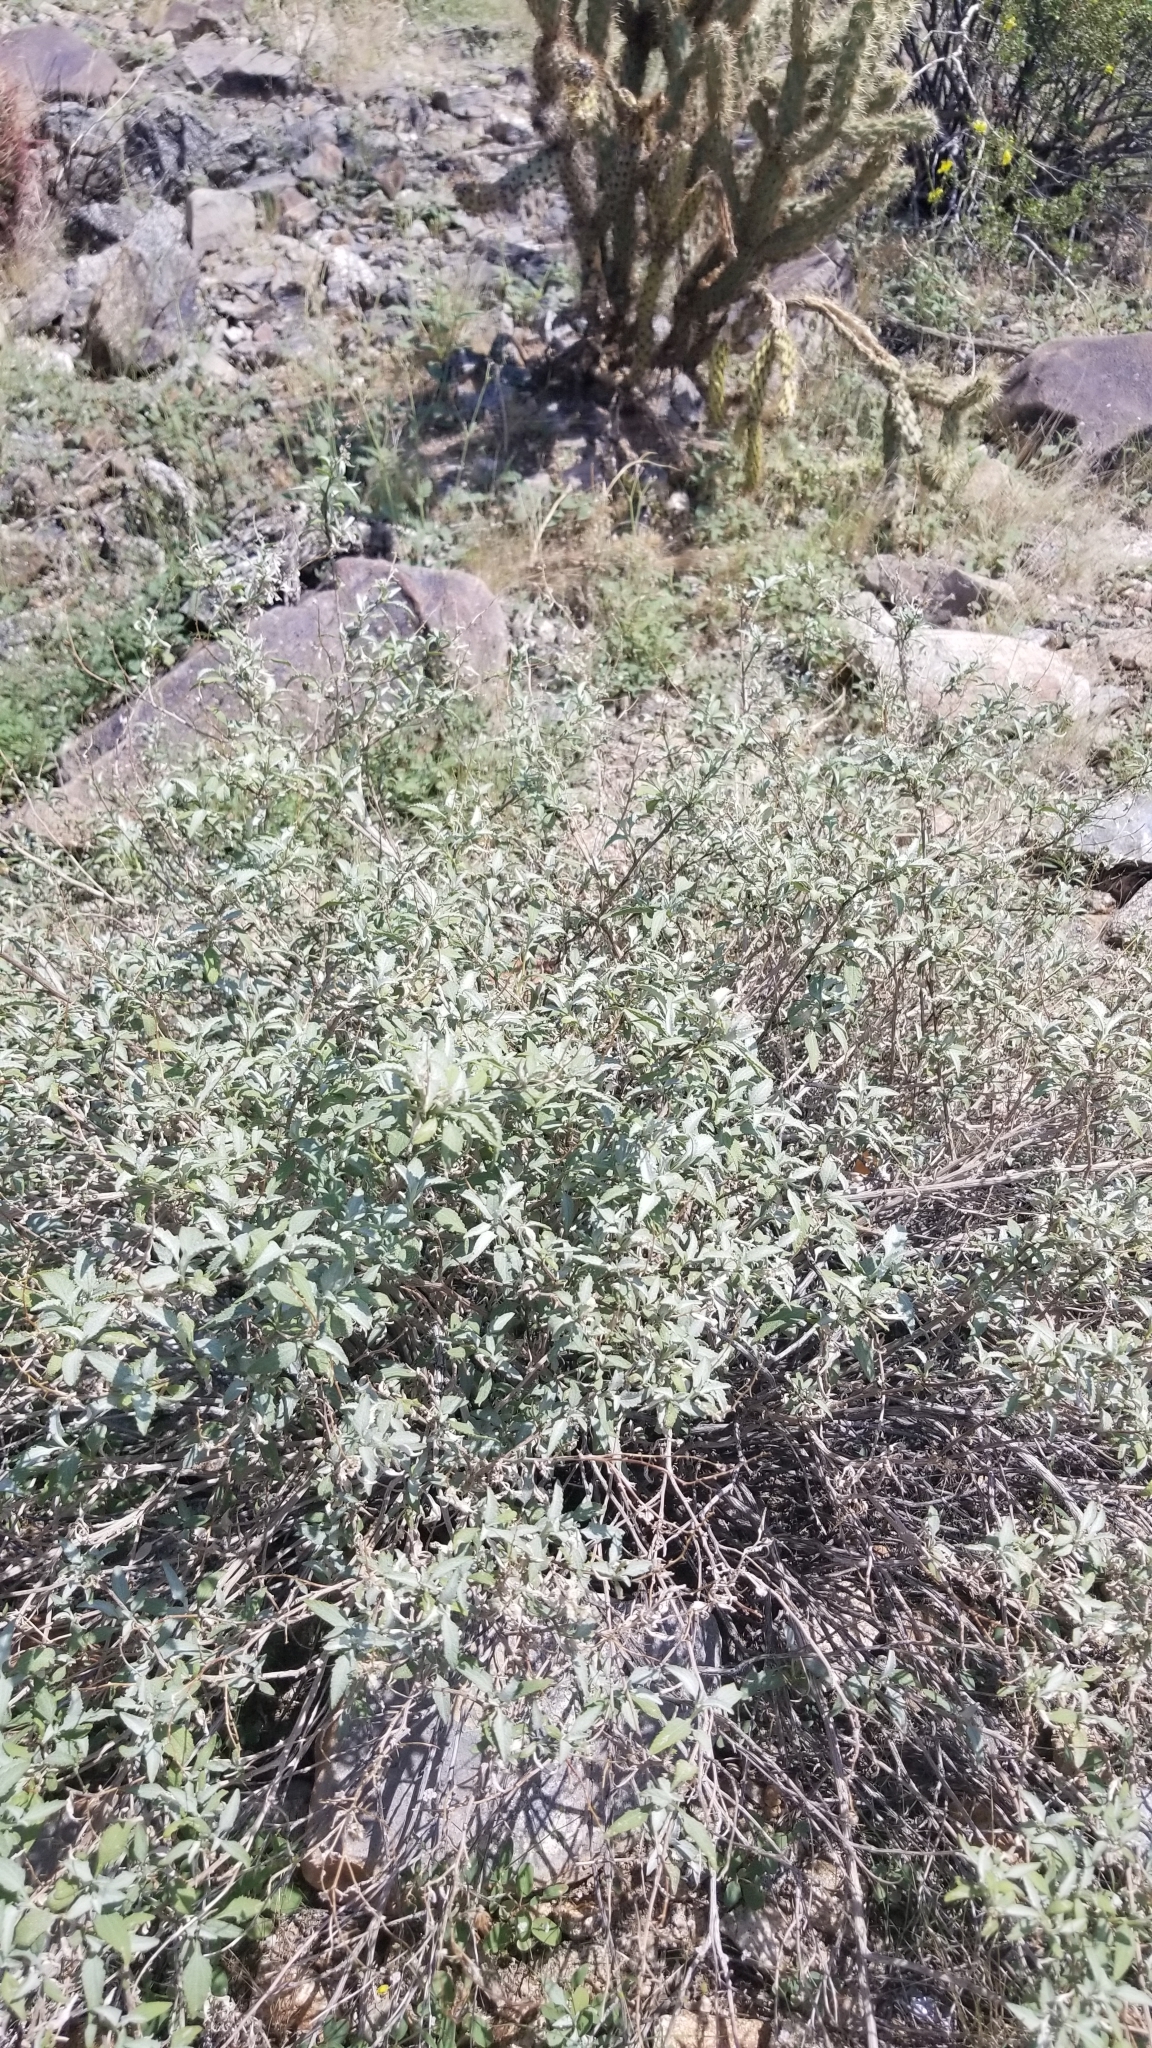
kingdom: Plantae
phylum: Tracheophyta
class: Magnoliopsida
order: Asterales
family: Asteraceae
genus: Ambrosia
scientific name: Ambrosia deltoidea
